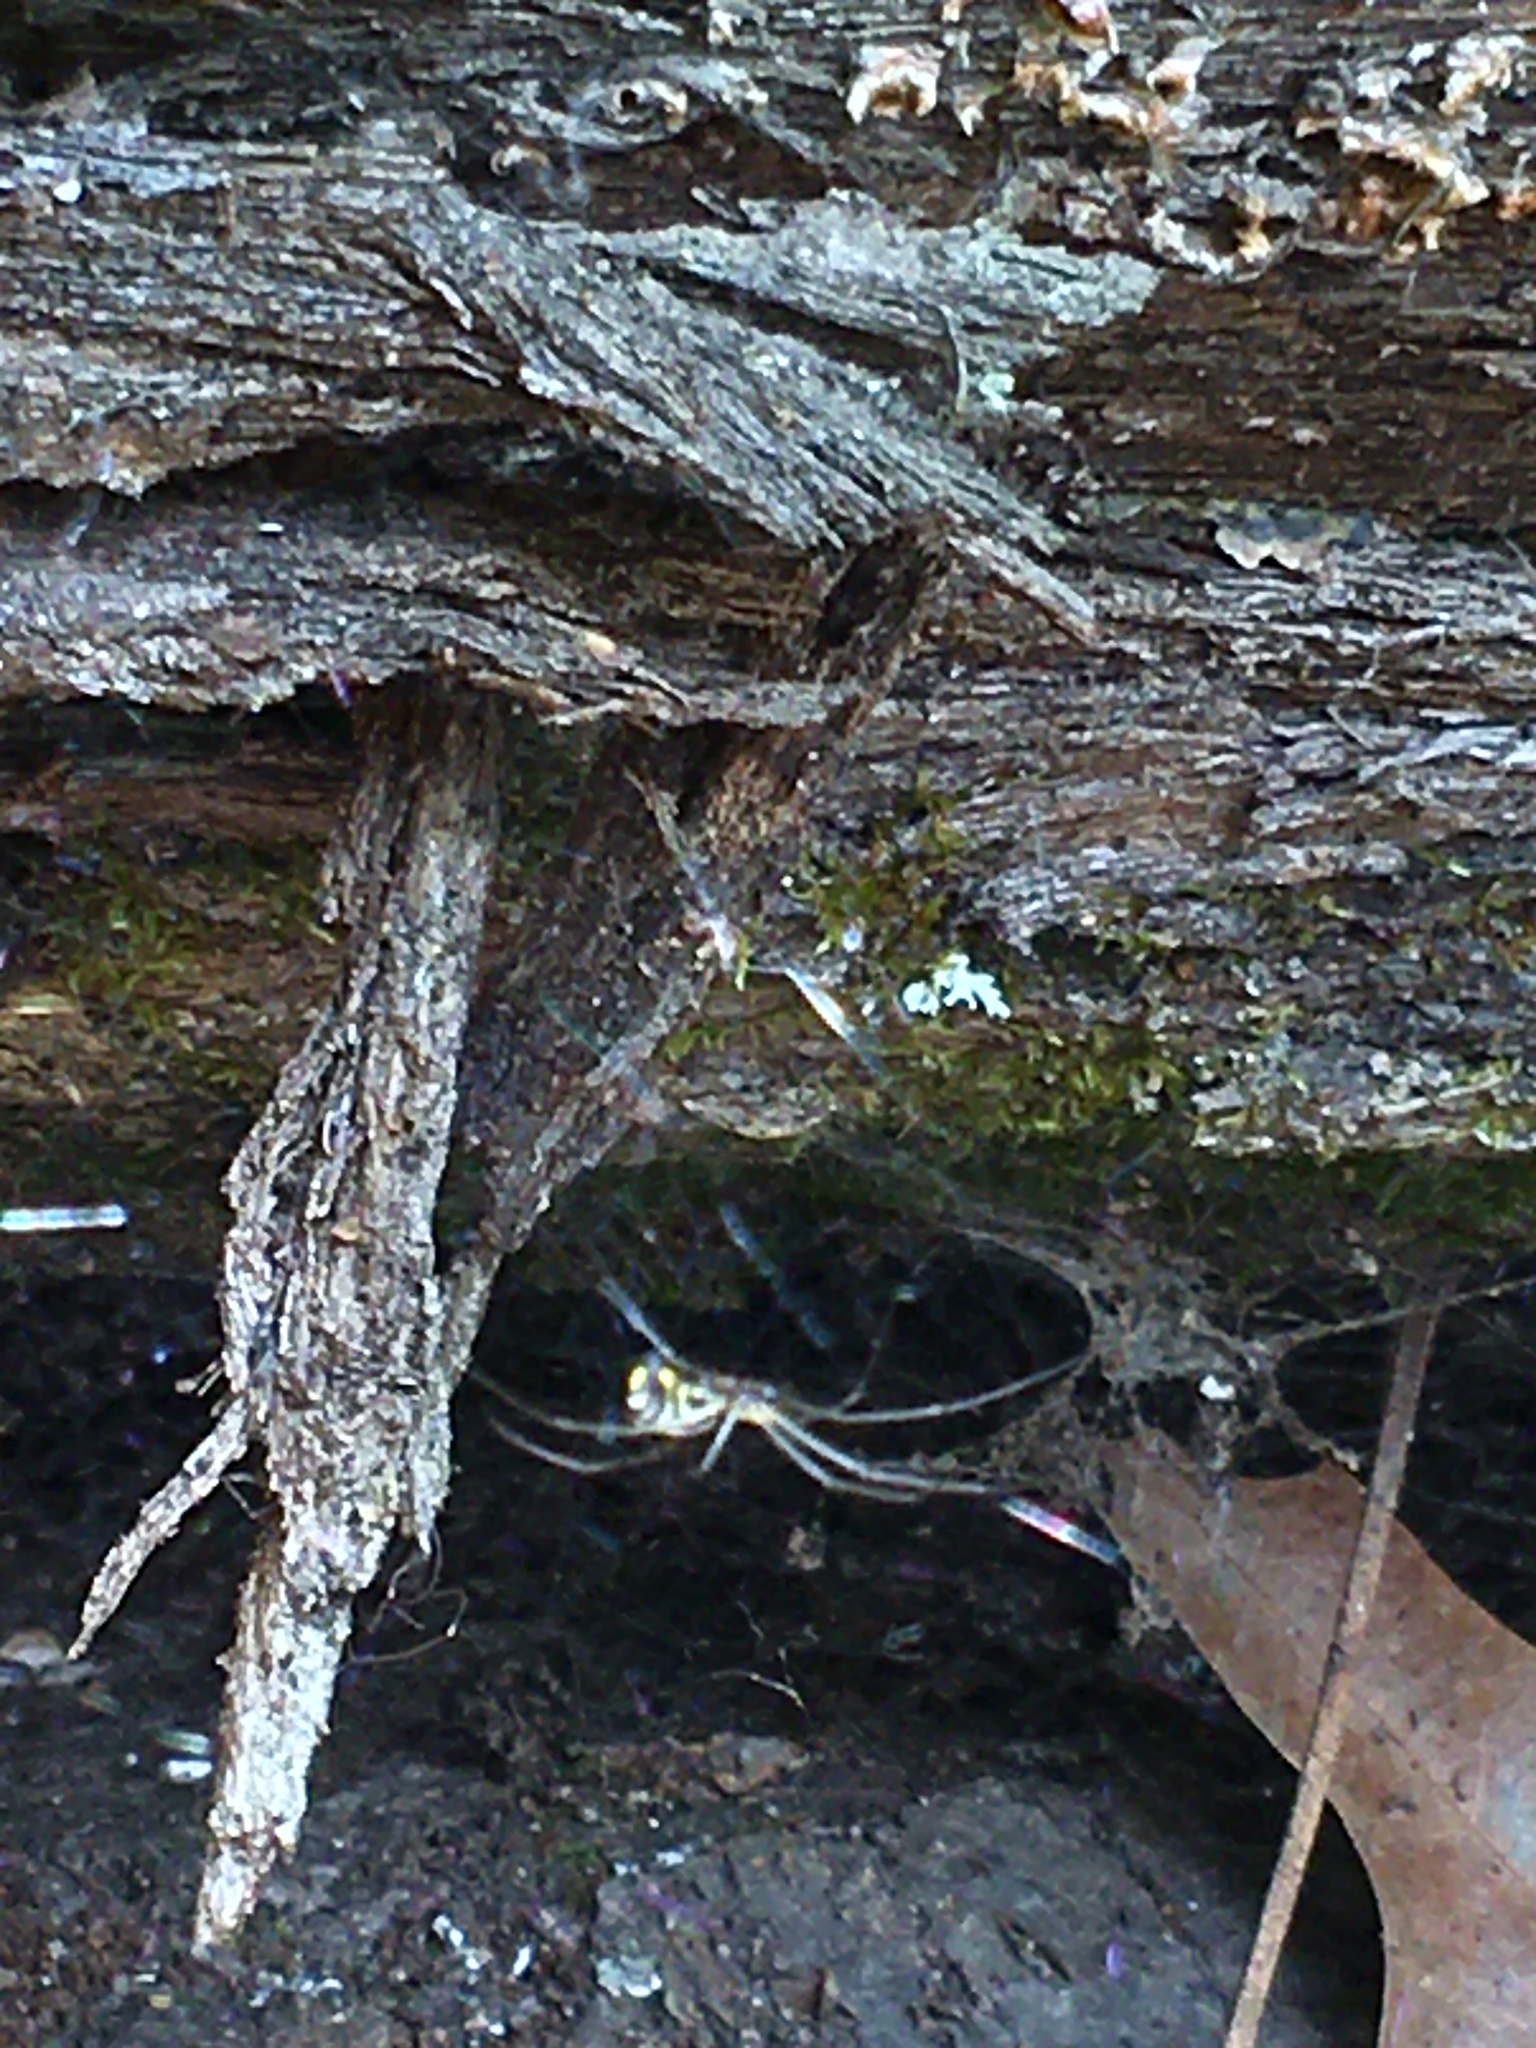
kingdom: Animalia
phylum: Arthropoda
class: Arachnida
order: Araneae
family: Linyphiidae
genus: Neriene
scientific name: Neriene radiata
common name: Filmy dome spider
